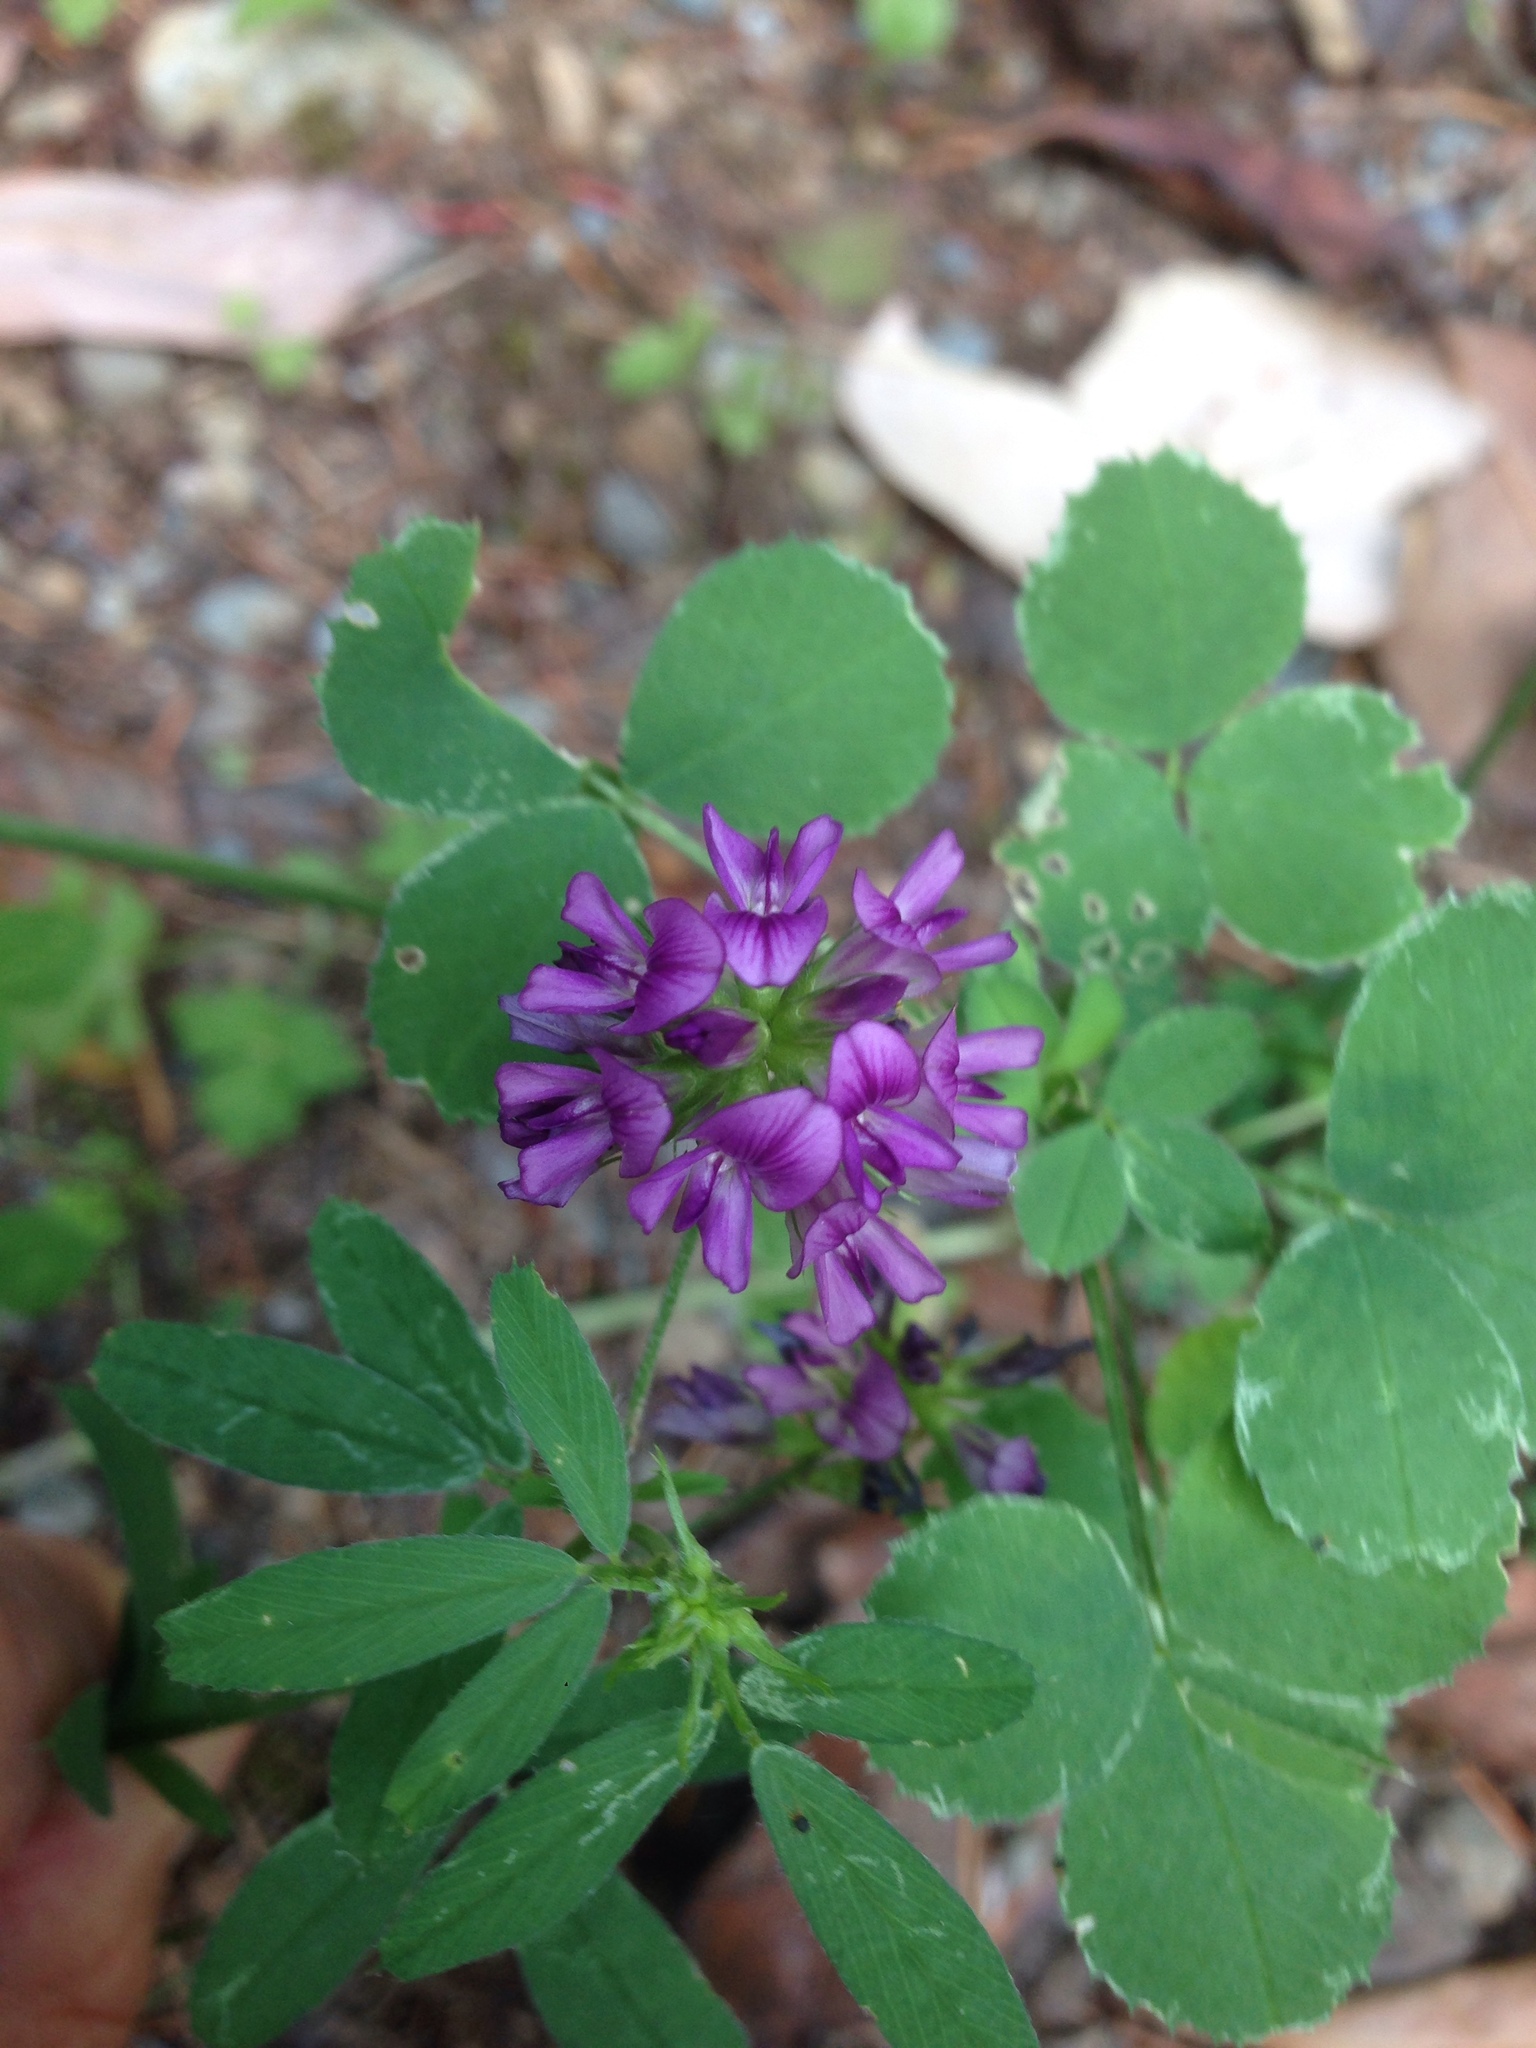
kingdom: Plantae
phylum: Tracheophyta
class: Magnoliopsida
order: Fabales
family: Fabaceae
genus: Medicago
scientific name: Medicago sativa
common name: Alfalfa
